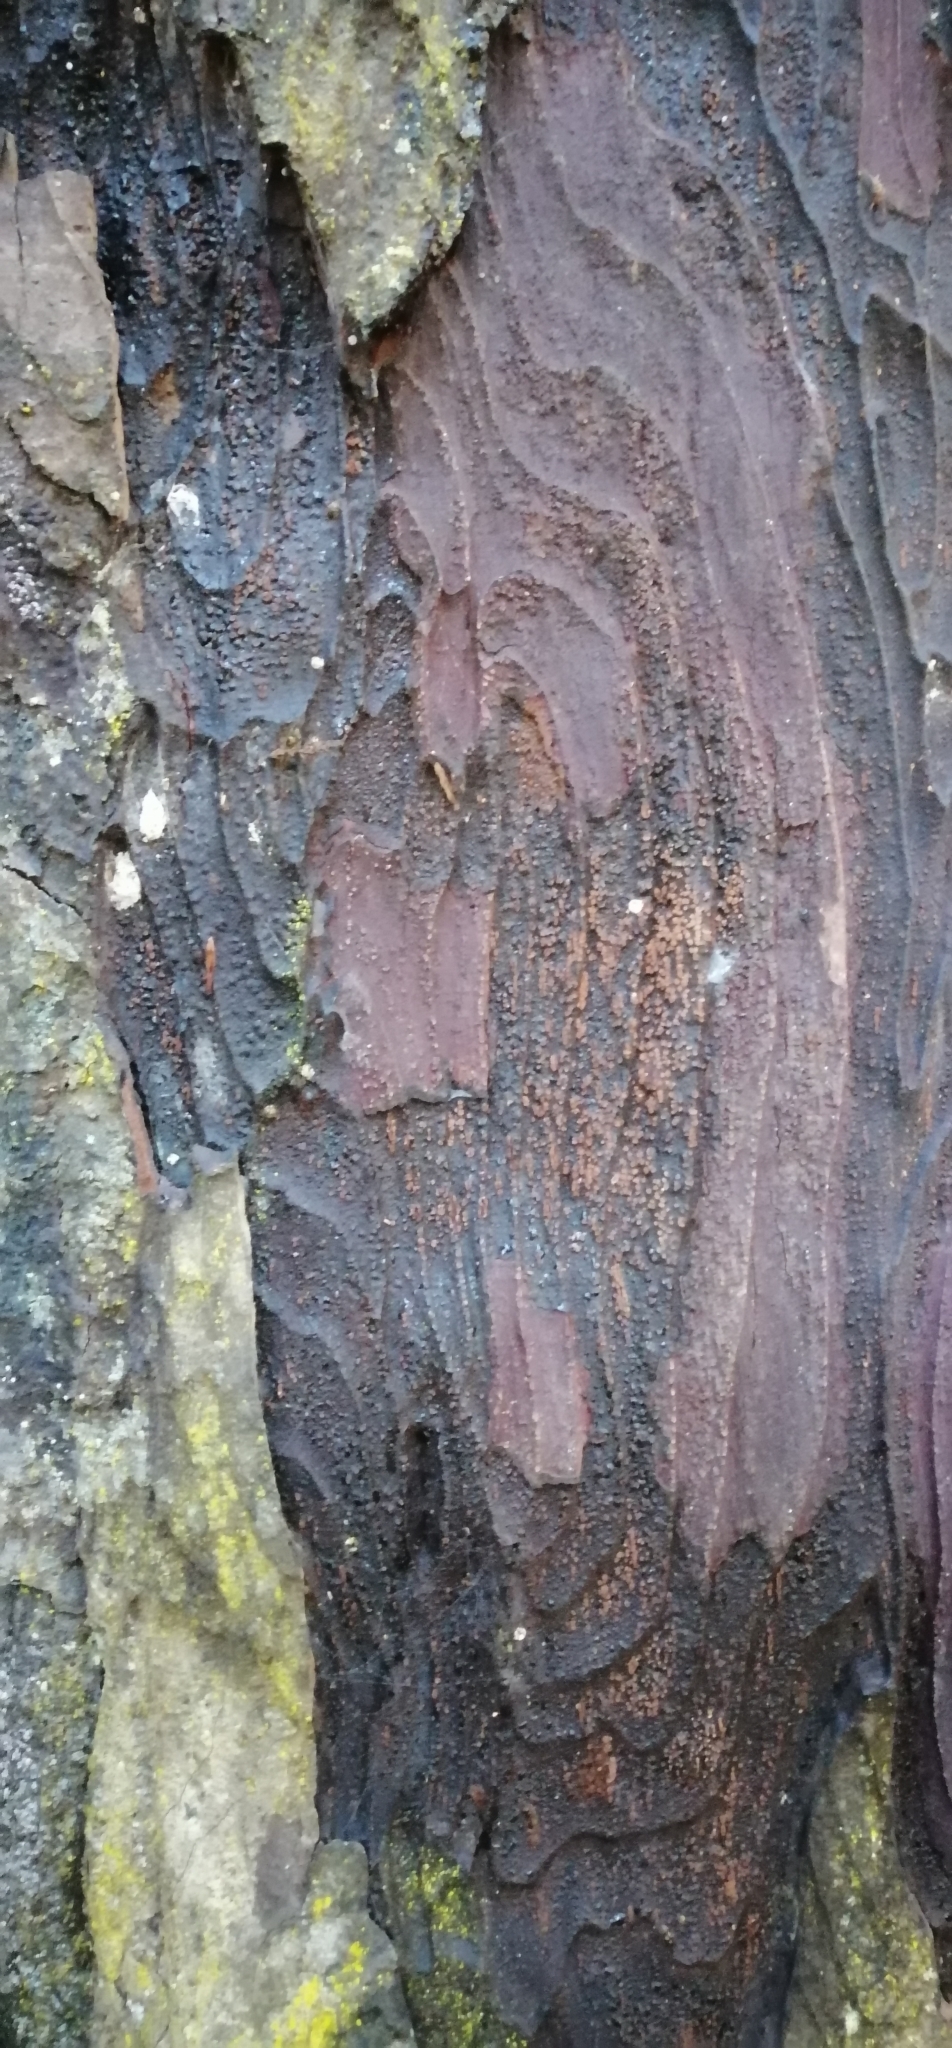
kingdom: Plantae
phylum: Tracheophyta
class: Pinopsida
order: Pinales
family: Podocarpaceae
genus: Dacrydium
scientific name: Dacrydium cupressinum
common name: Red pine
